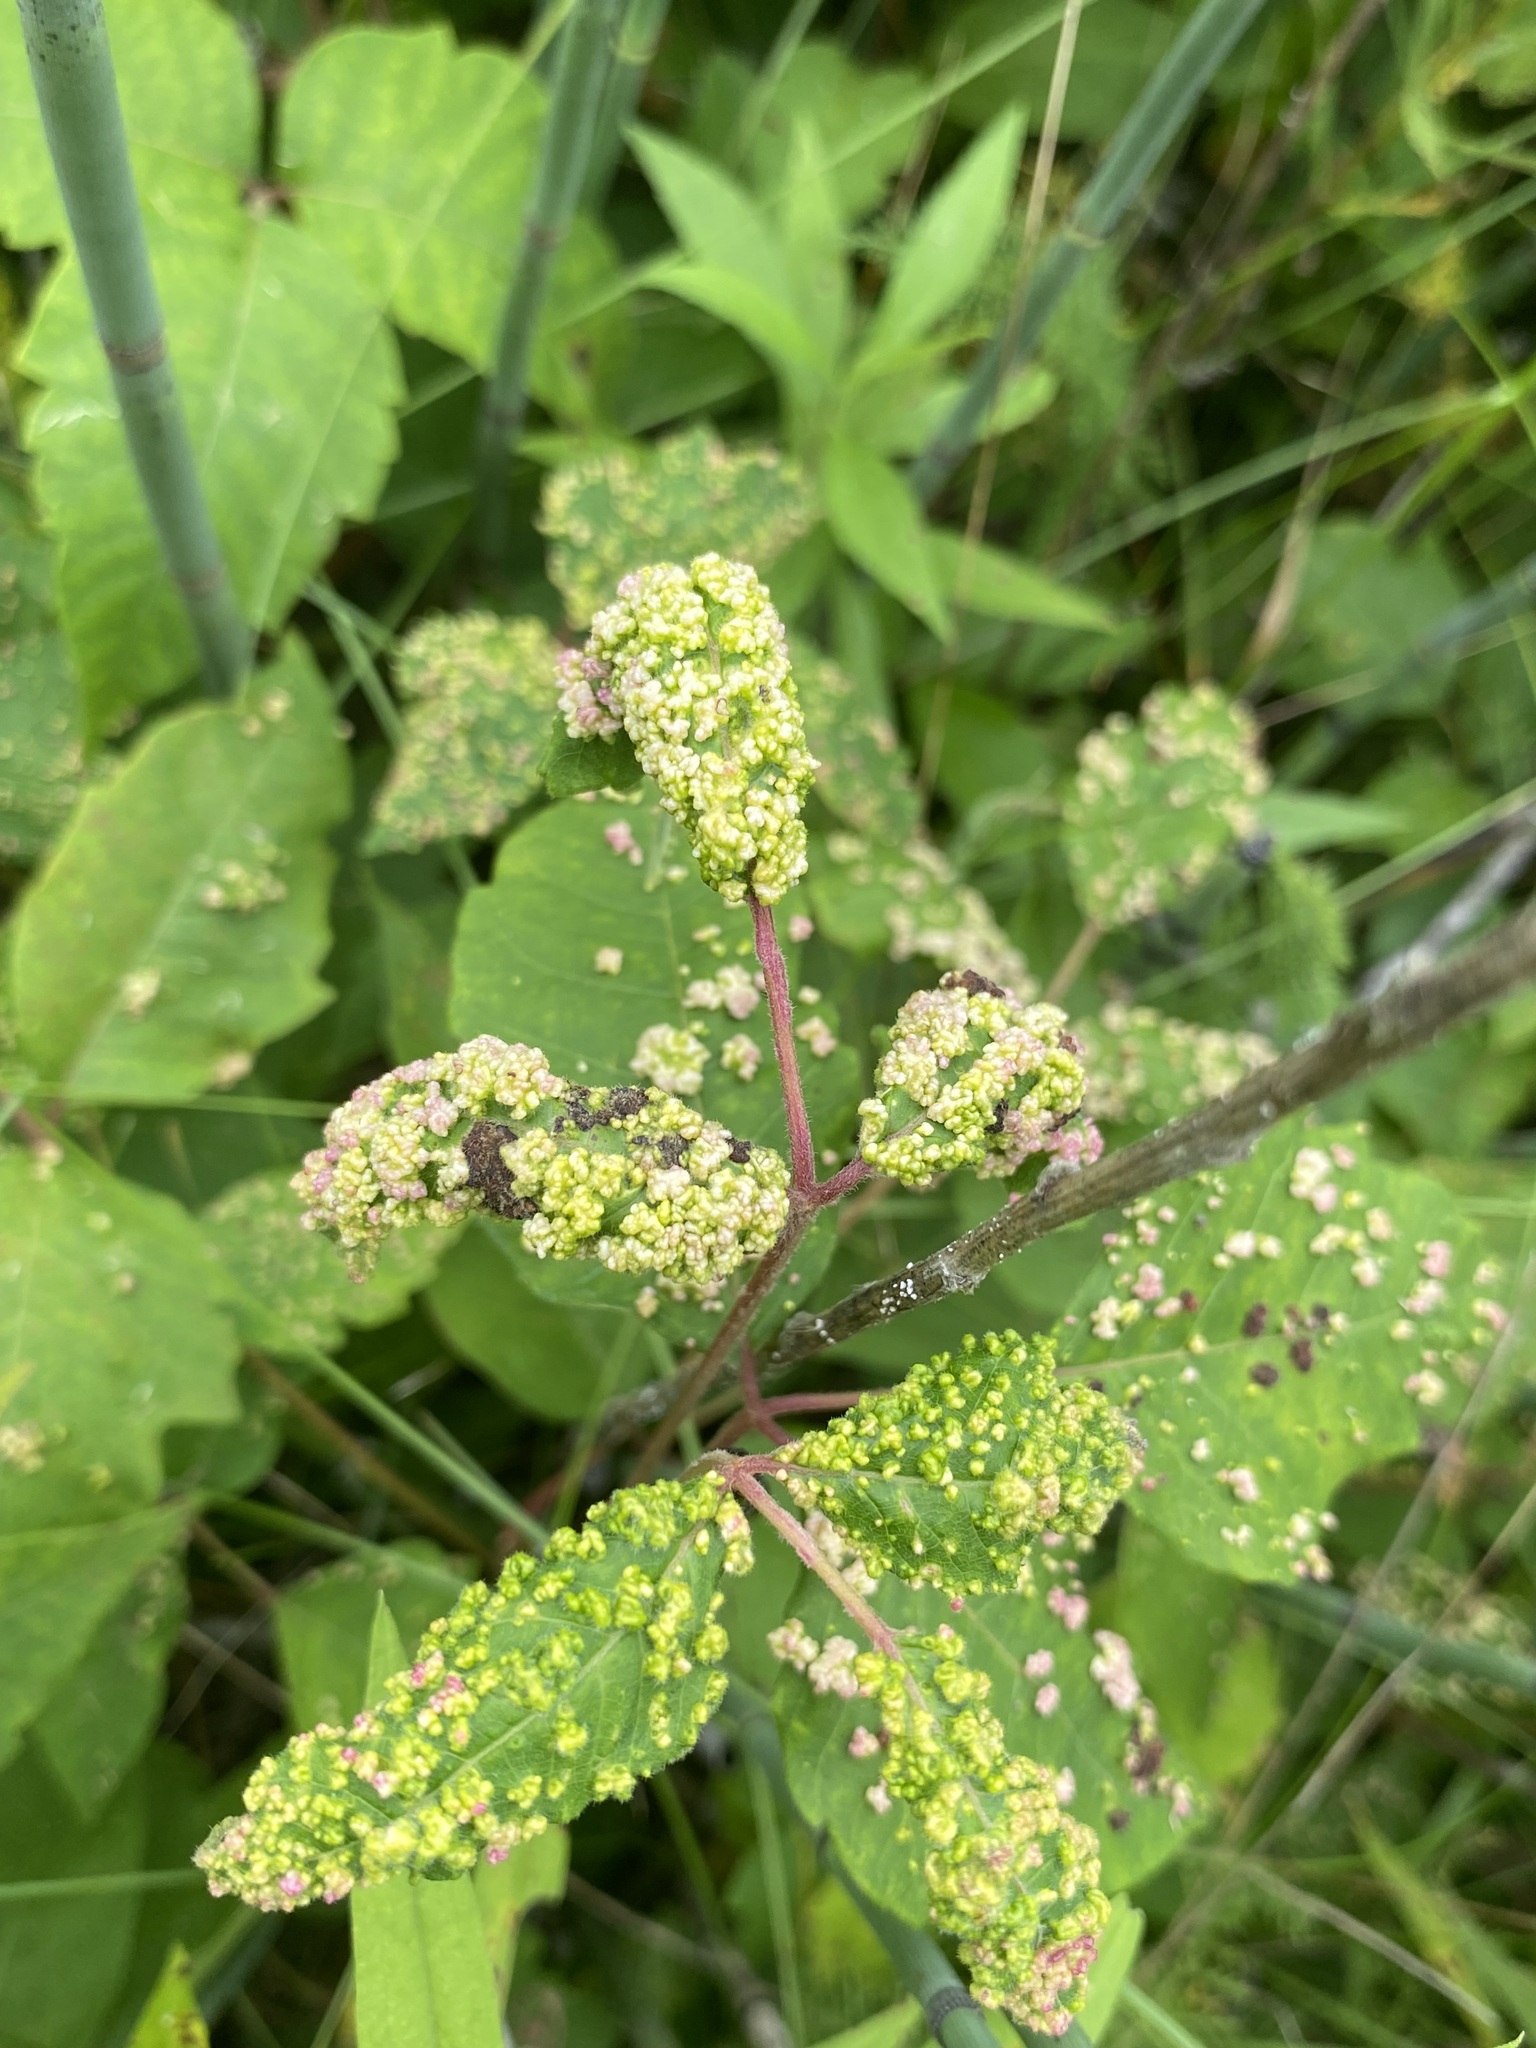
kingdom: Animalia
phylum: Arthropoda
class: Arachnida
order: Trombidiformes
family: Eriophyidae
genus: Aculops
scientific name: Aculops
